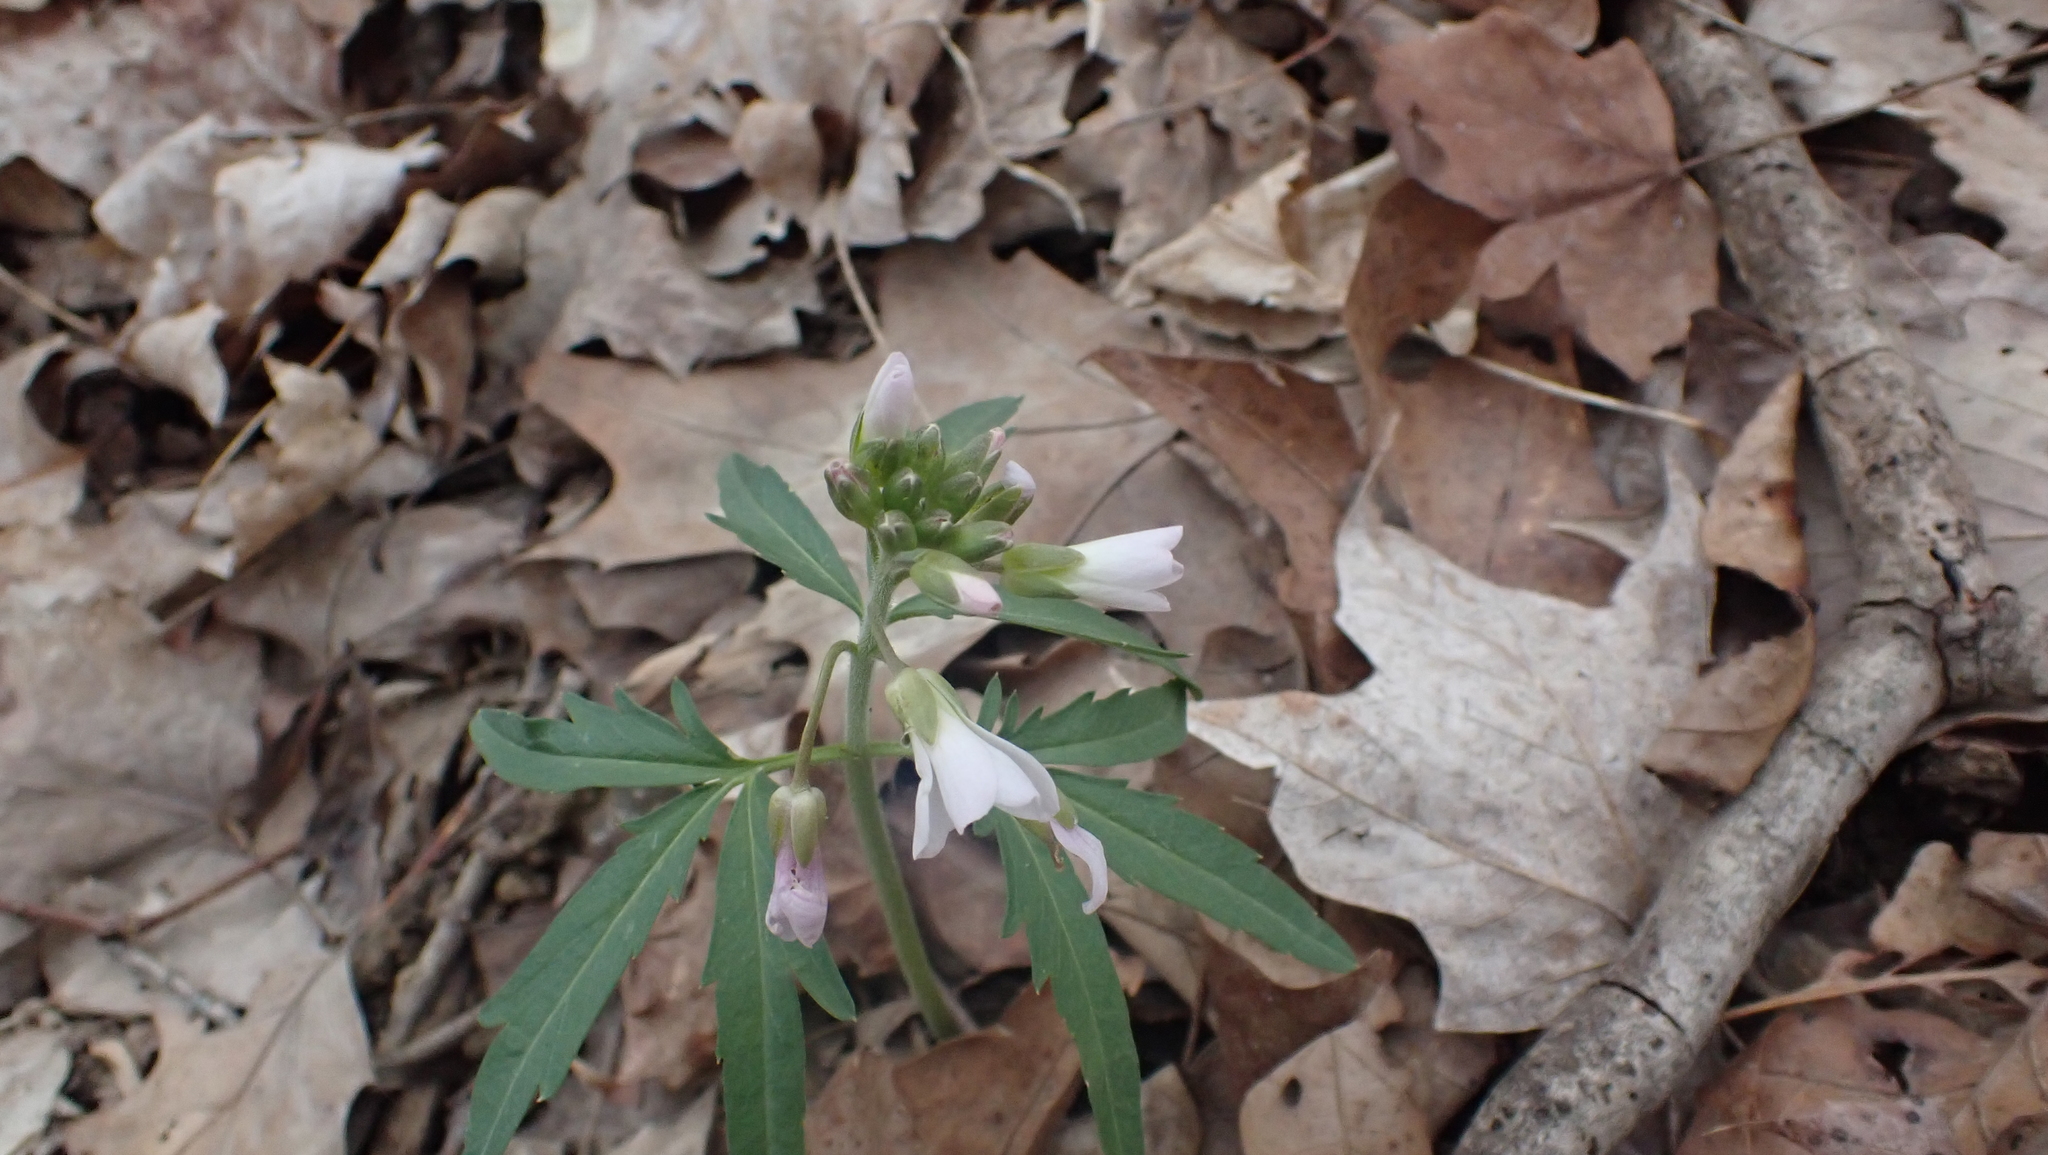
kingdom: Plantae
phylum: Tracheophyta
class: Magnoliopsida
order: Brassicales
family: Brassicaceae
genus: Cardamine
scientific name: Cardamine concatenata
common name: Cut-leaf toothcup
